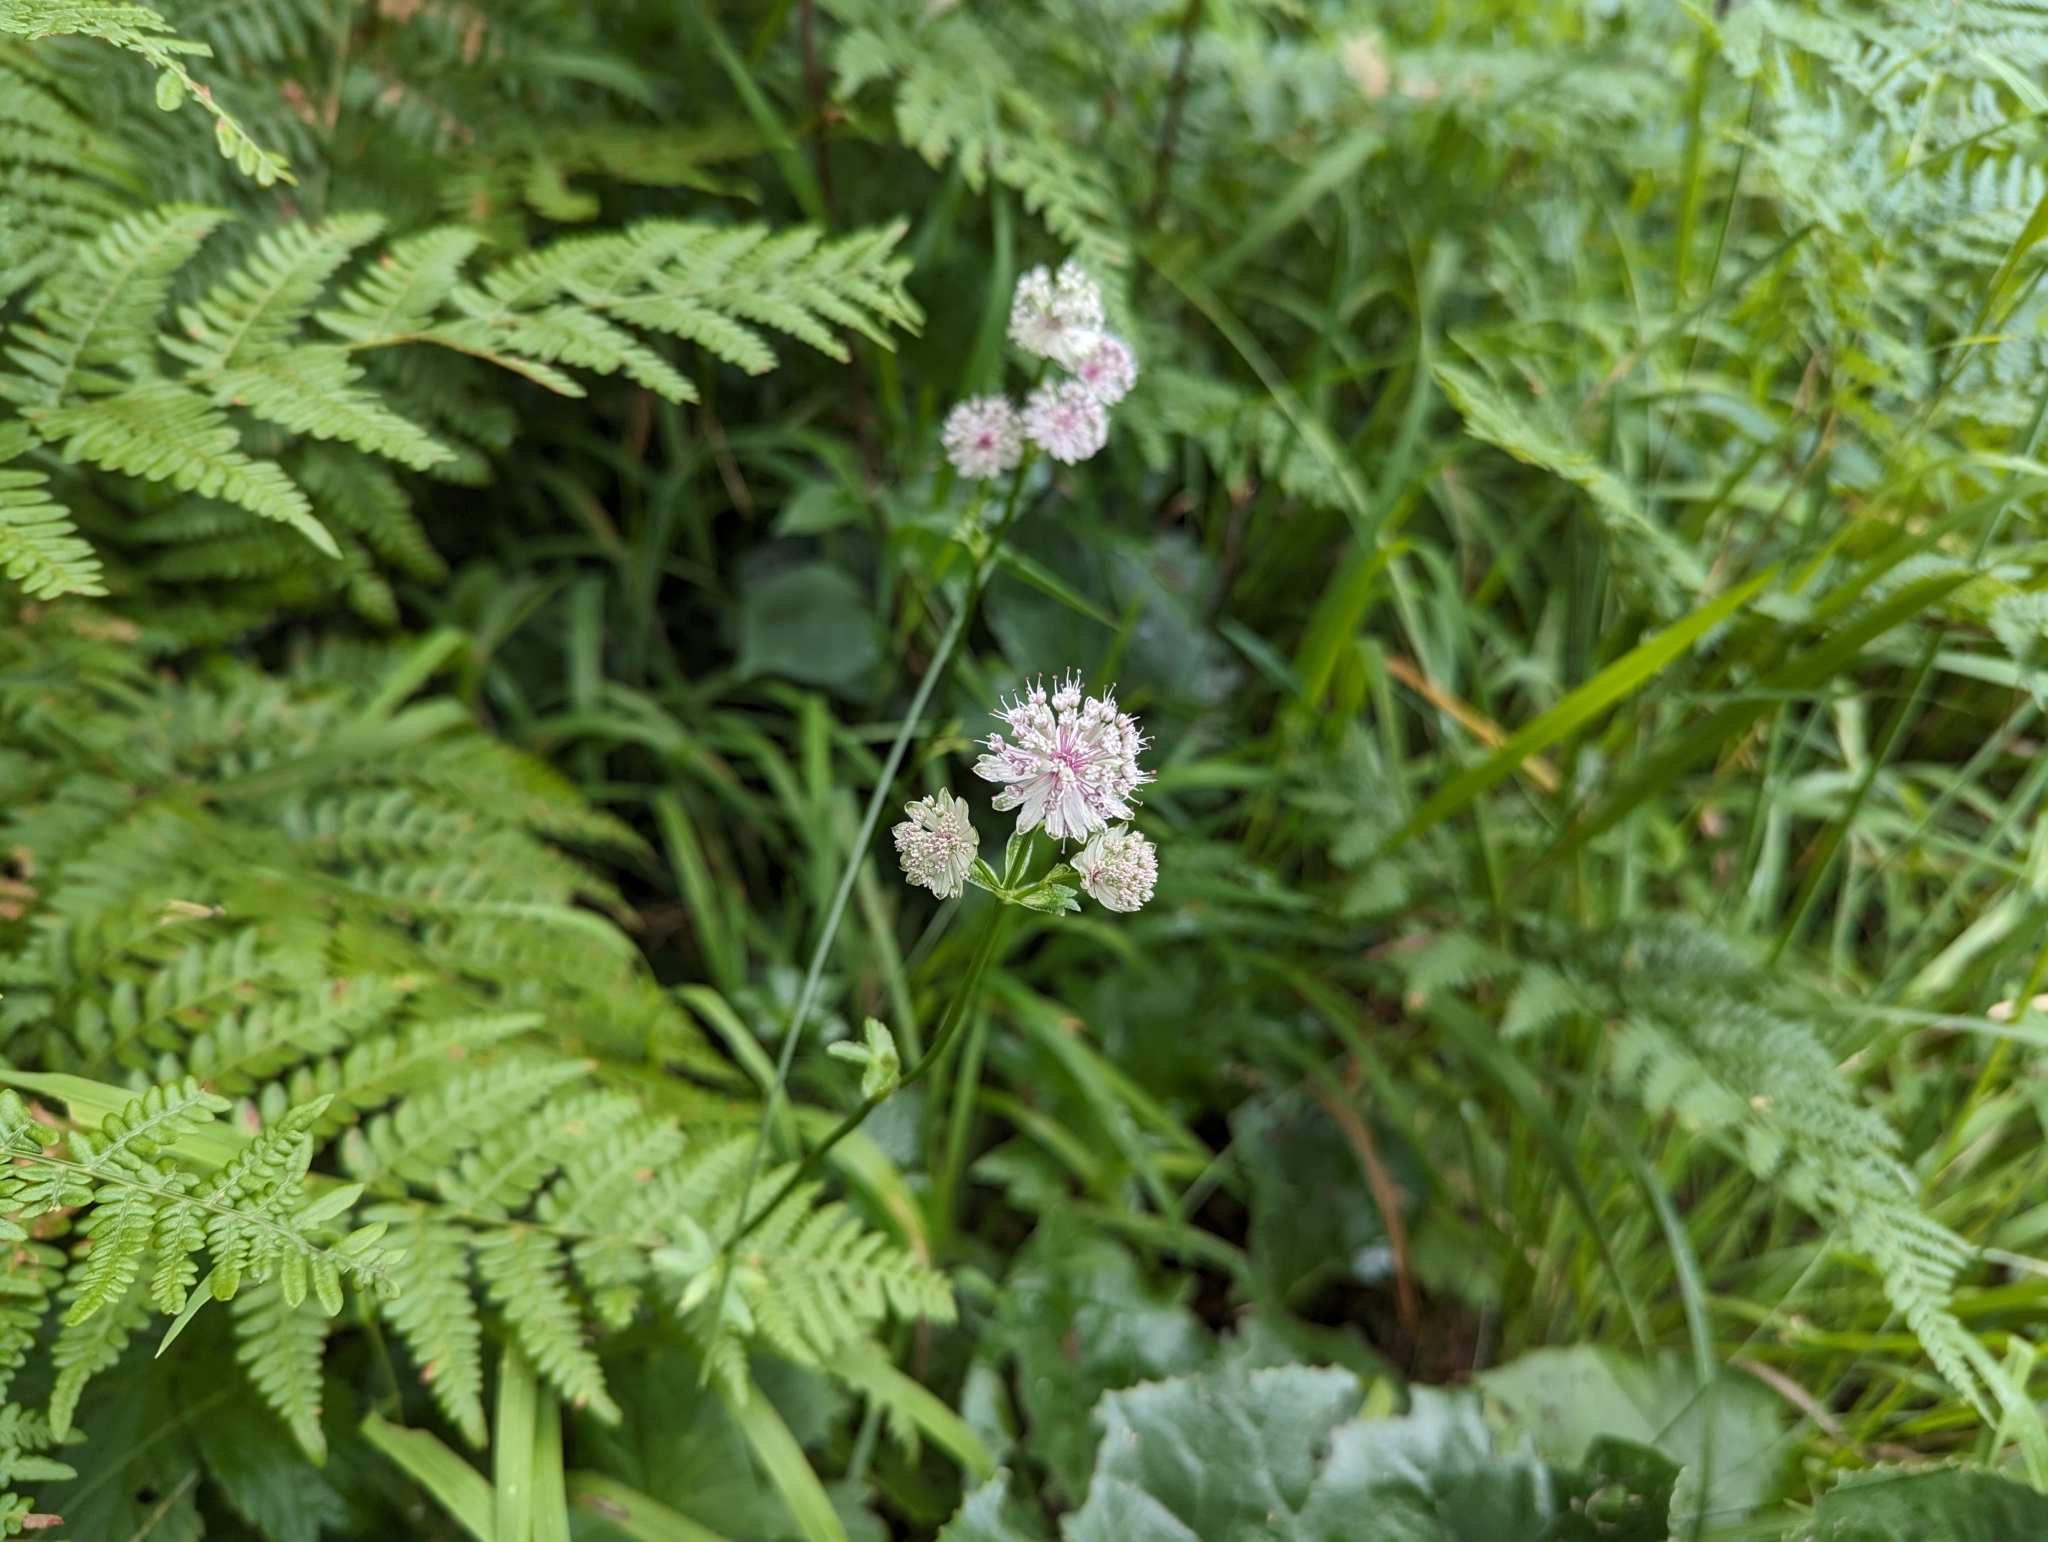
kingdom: Plantae
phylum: Tracheophyta
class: Magnoliopsida
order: Apiales
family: Apiaceae
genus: Astrantia
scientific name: Astrantia major
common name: Greater masterwort
